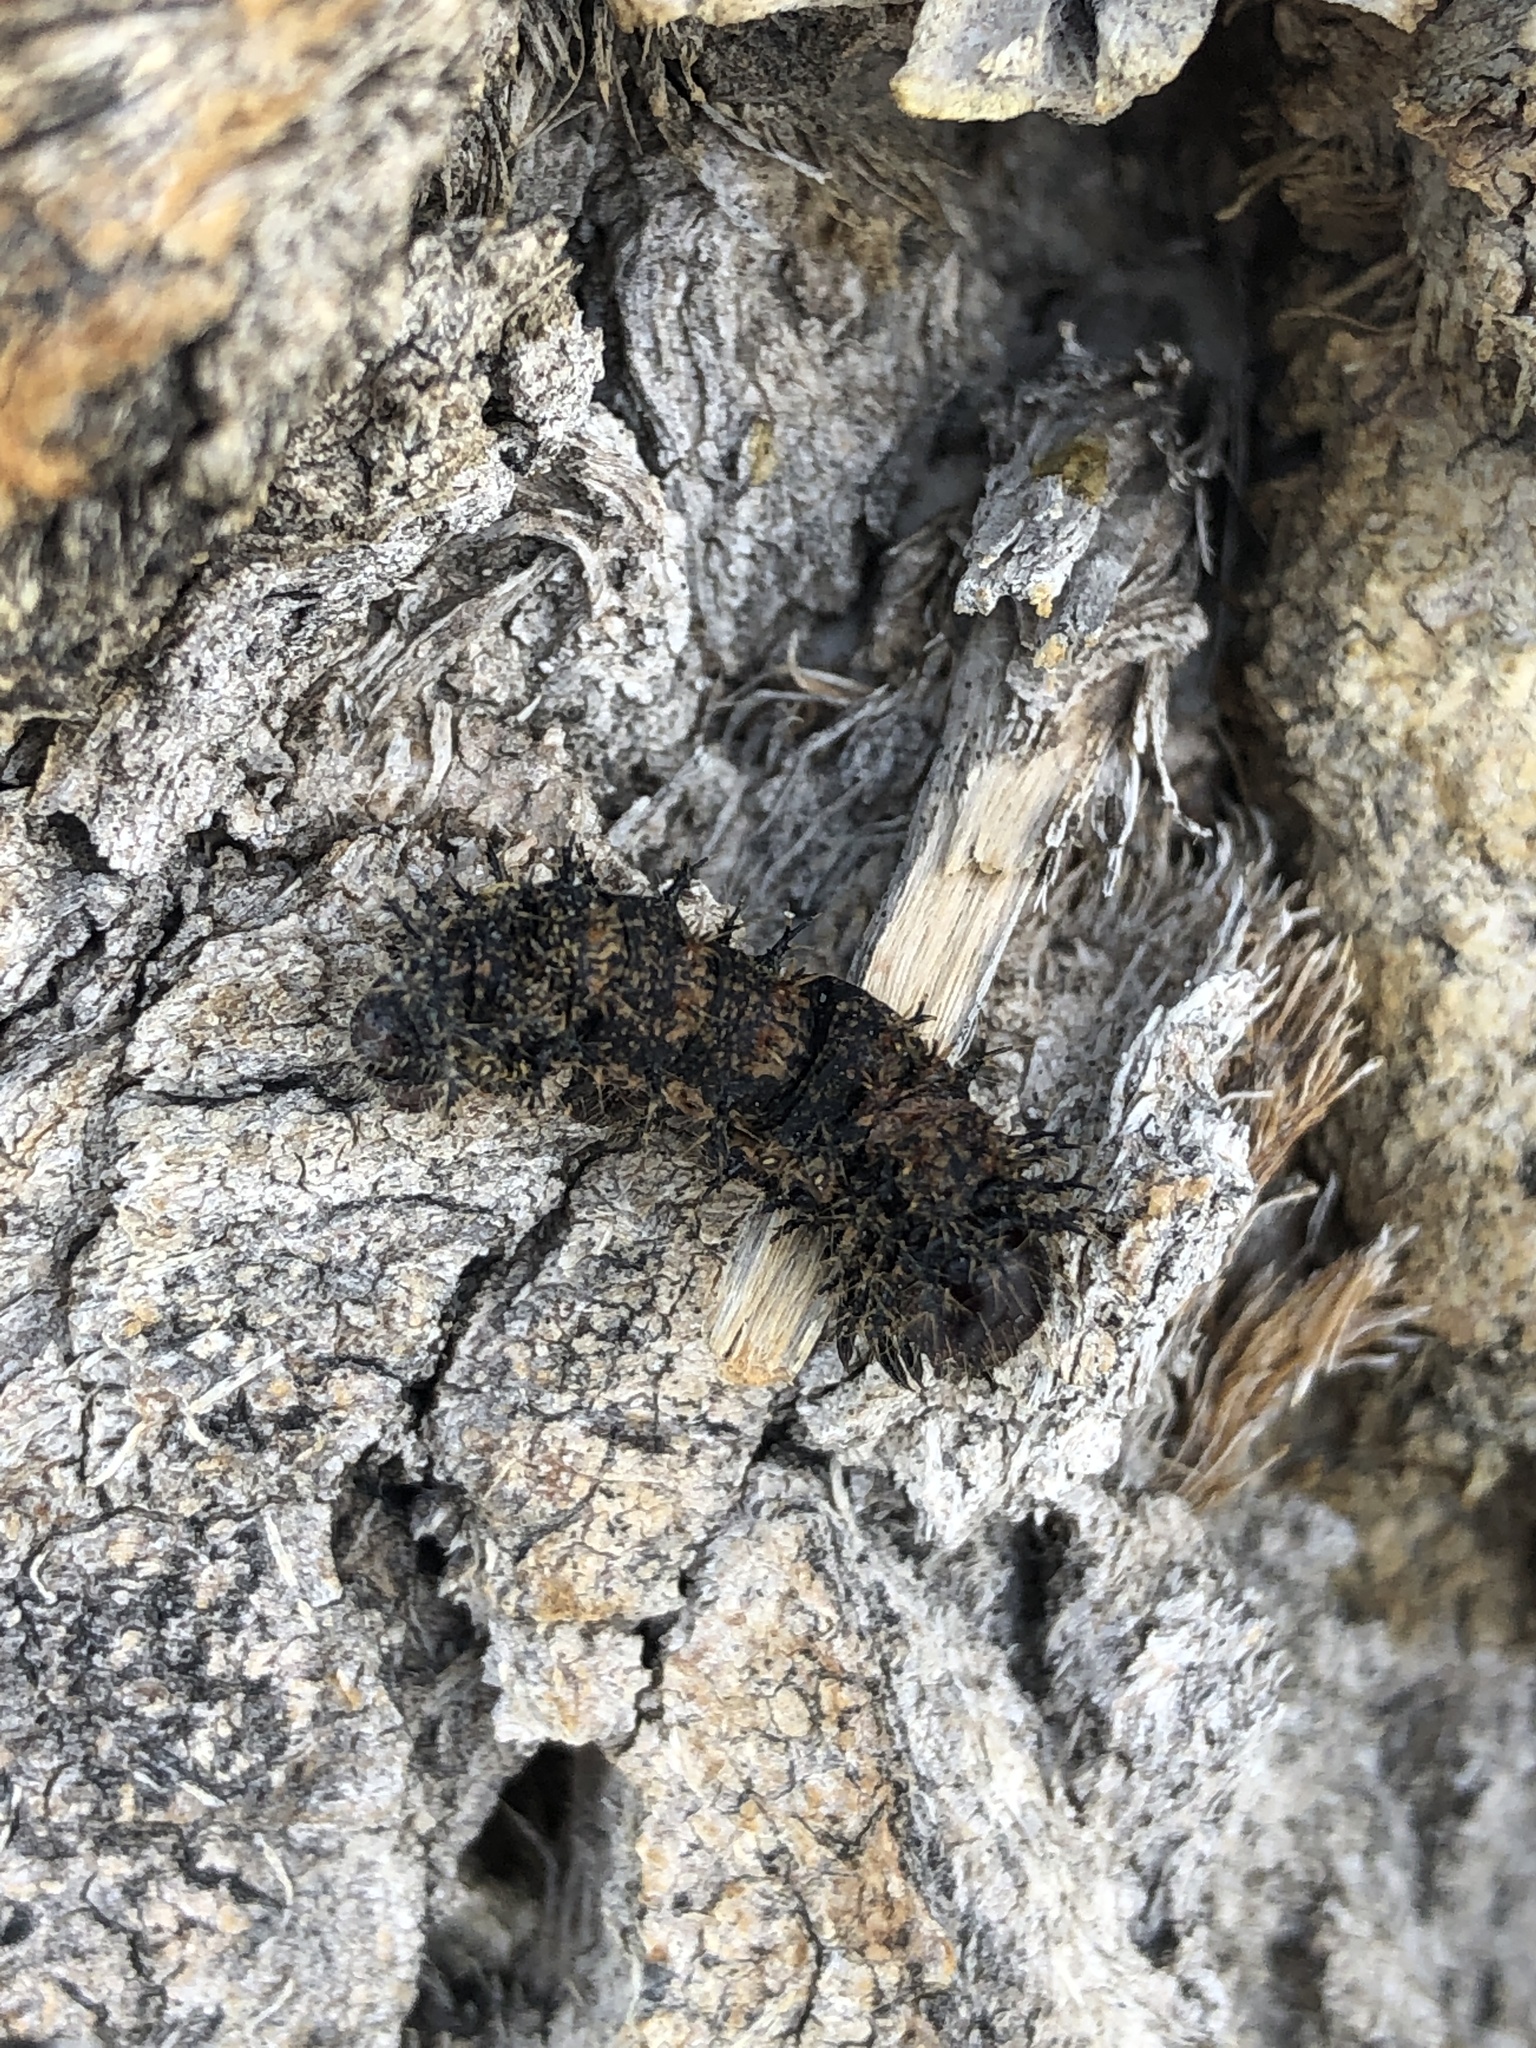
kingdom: Animalia
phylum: Arthropoda
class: Insecta
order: Lepidoptera
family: Nymphalidae
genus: Nymphalis
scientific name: Nymphalis antiopa
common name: Camberwell beauty
